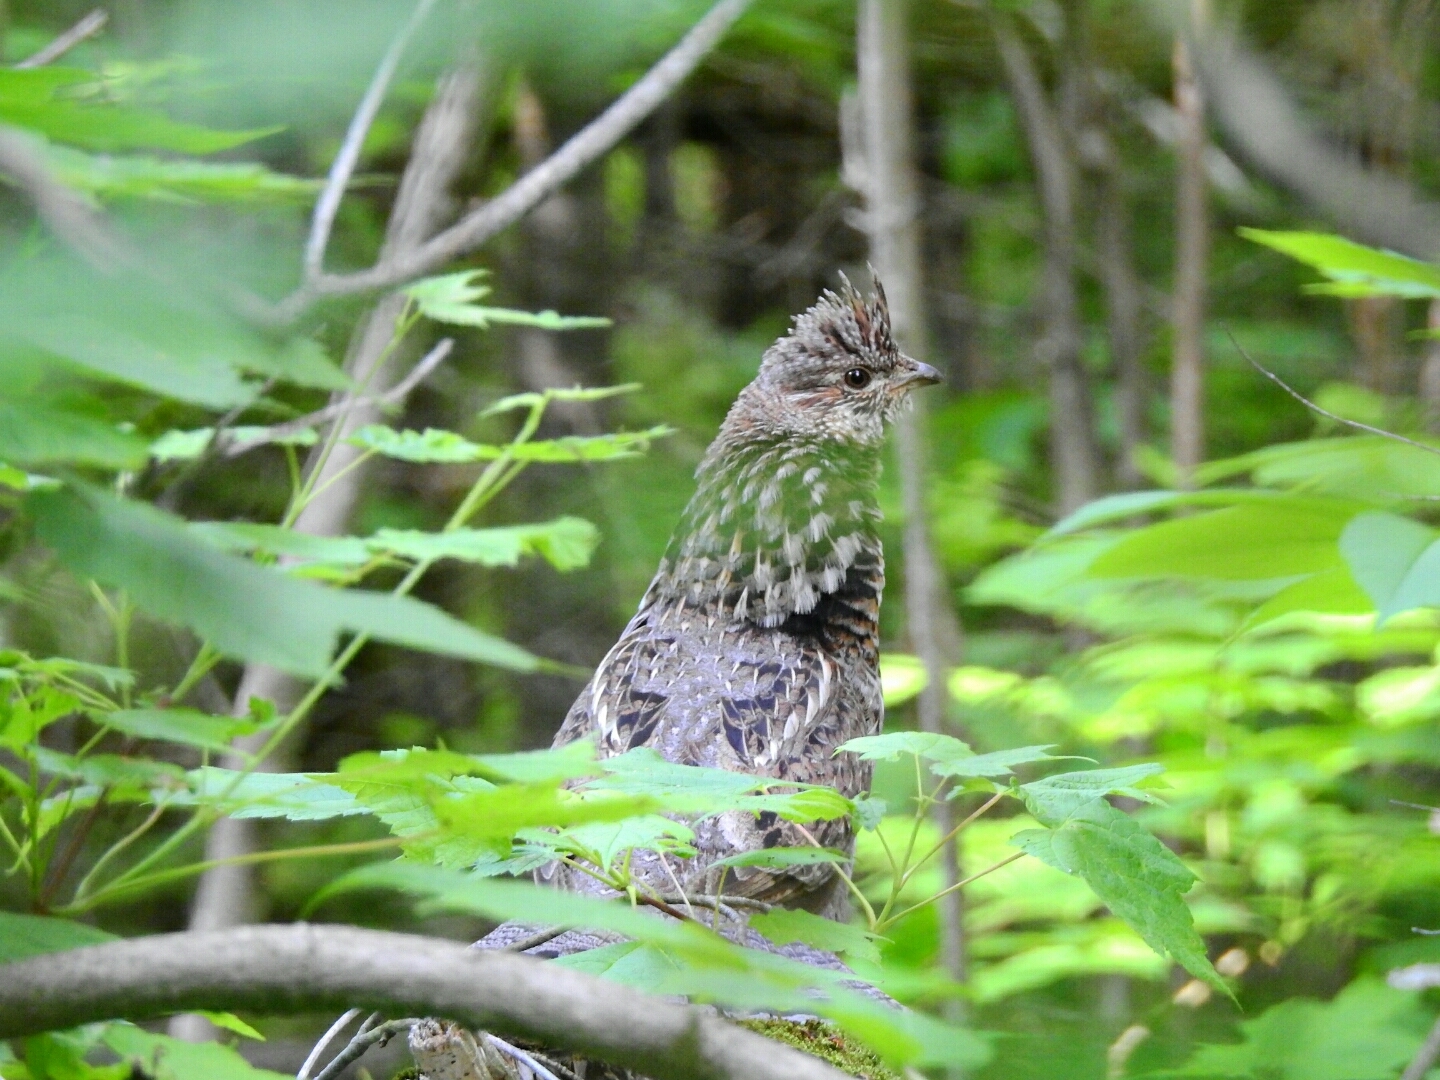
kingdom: Animalia
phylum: Chordata
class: Aves
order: Galliformes
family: Phasianidae
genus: Bonasa
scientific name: Bonasa umbellus
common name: Ruffed grouse
